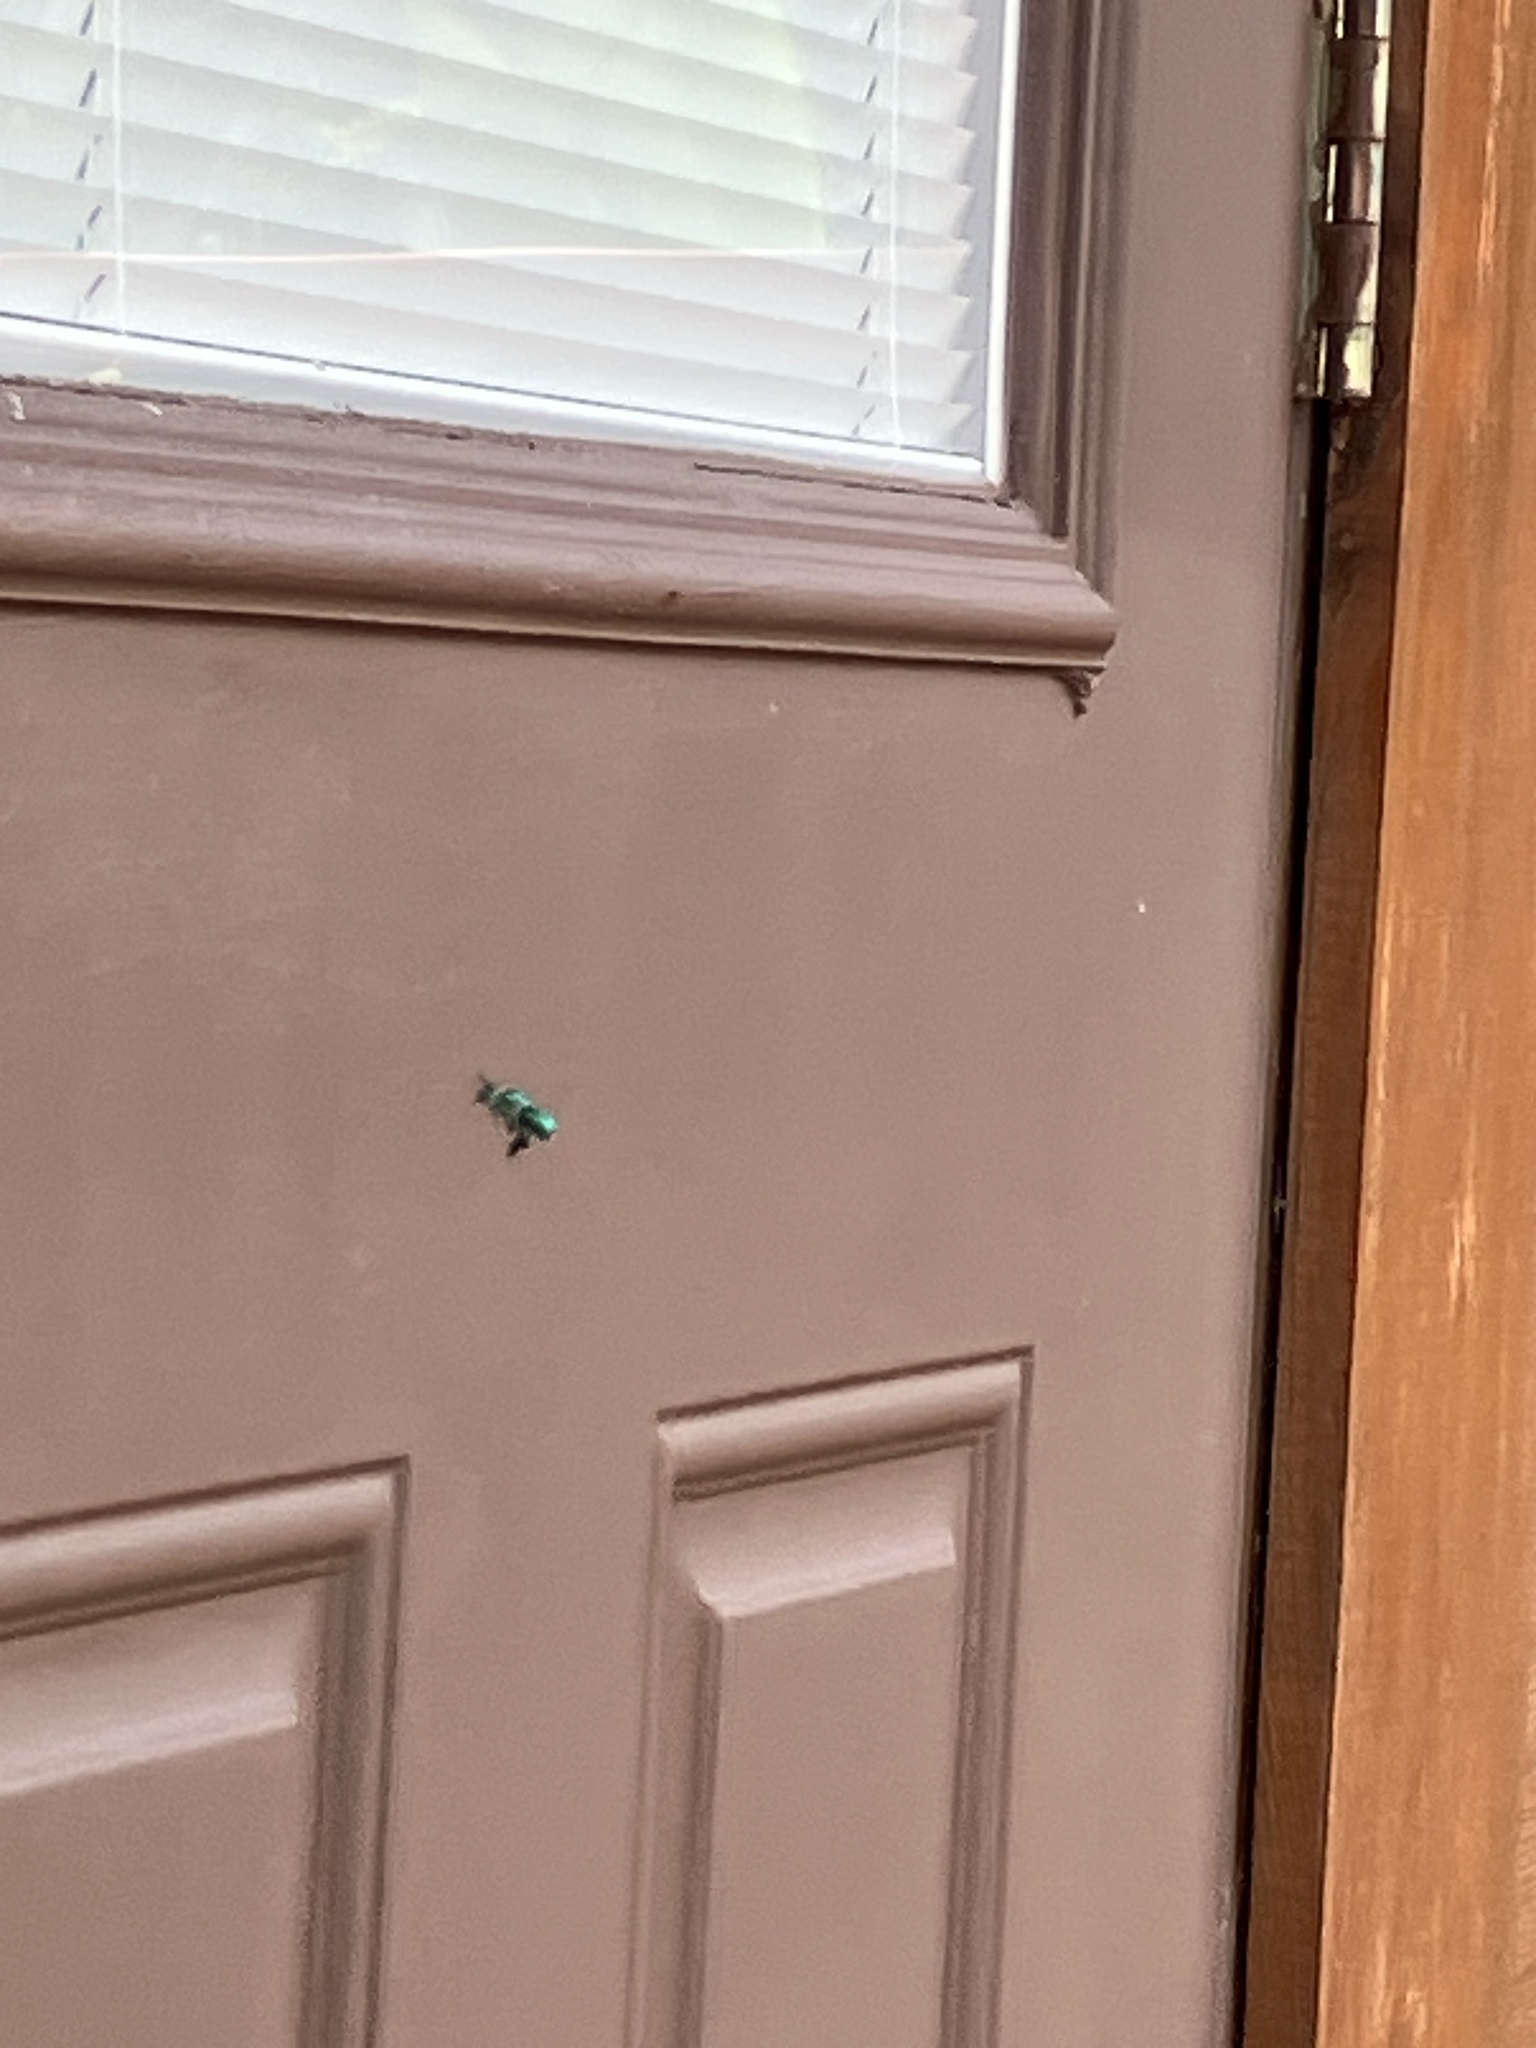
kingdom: Animalia
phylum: Arthropoda
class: Insecta
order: Hymenoptera
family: Apidae
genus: Euglossa
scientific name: Euglossa dilemma
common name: Green orchid bee
